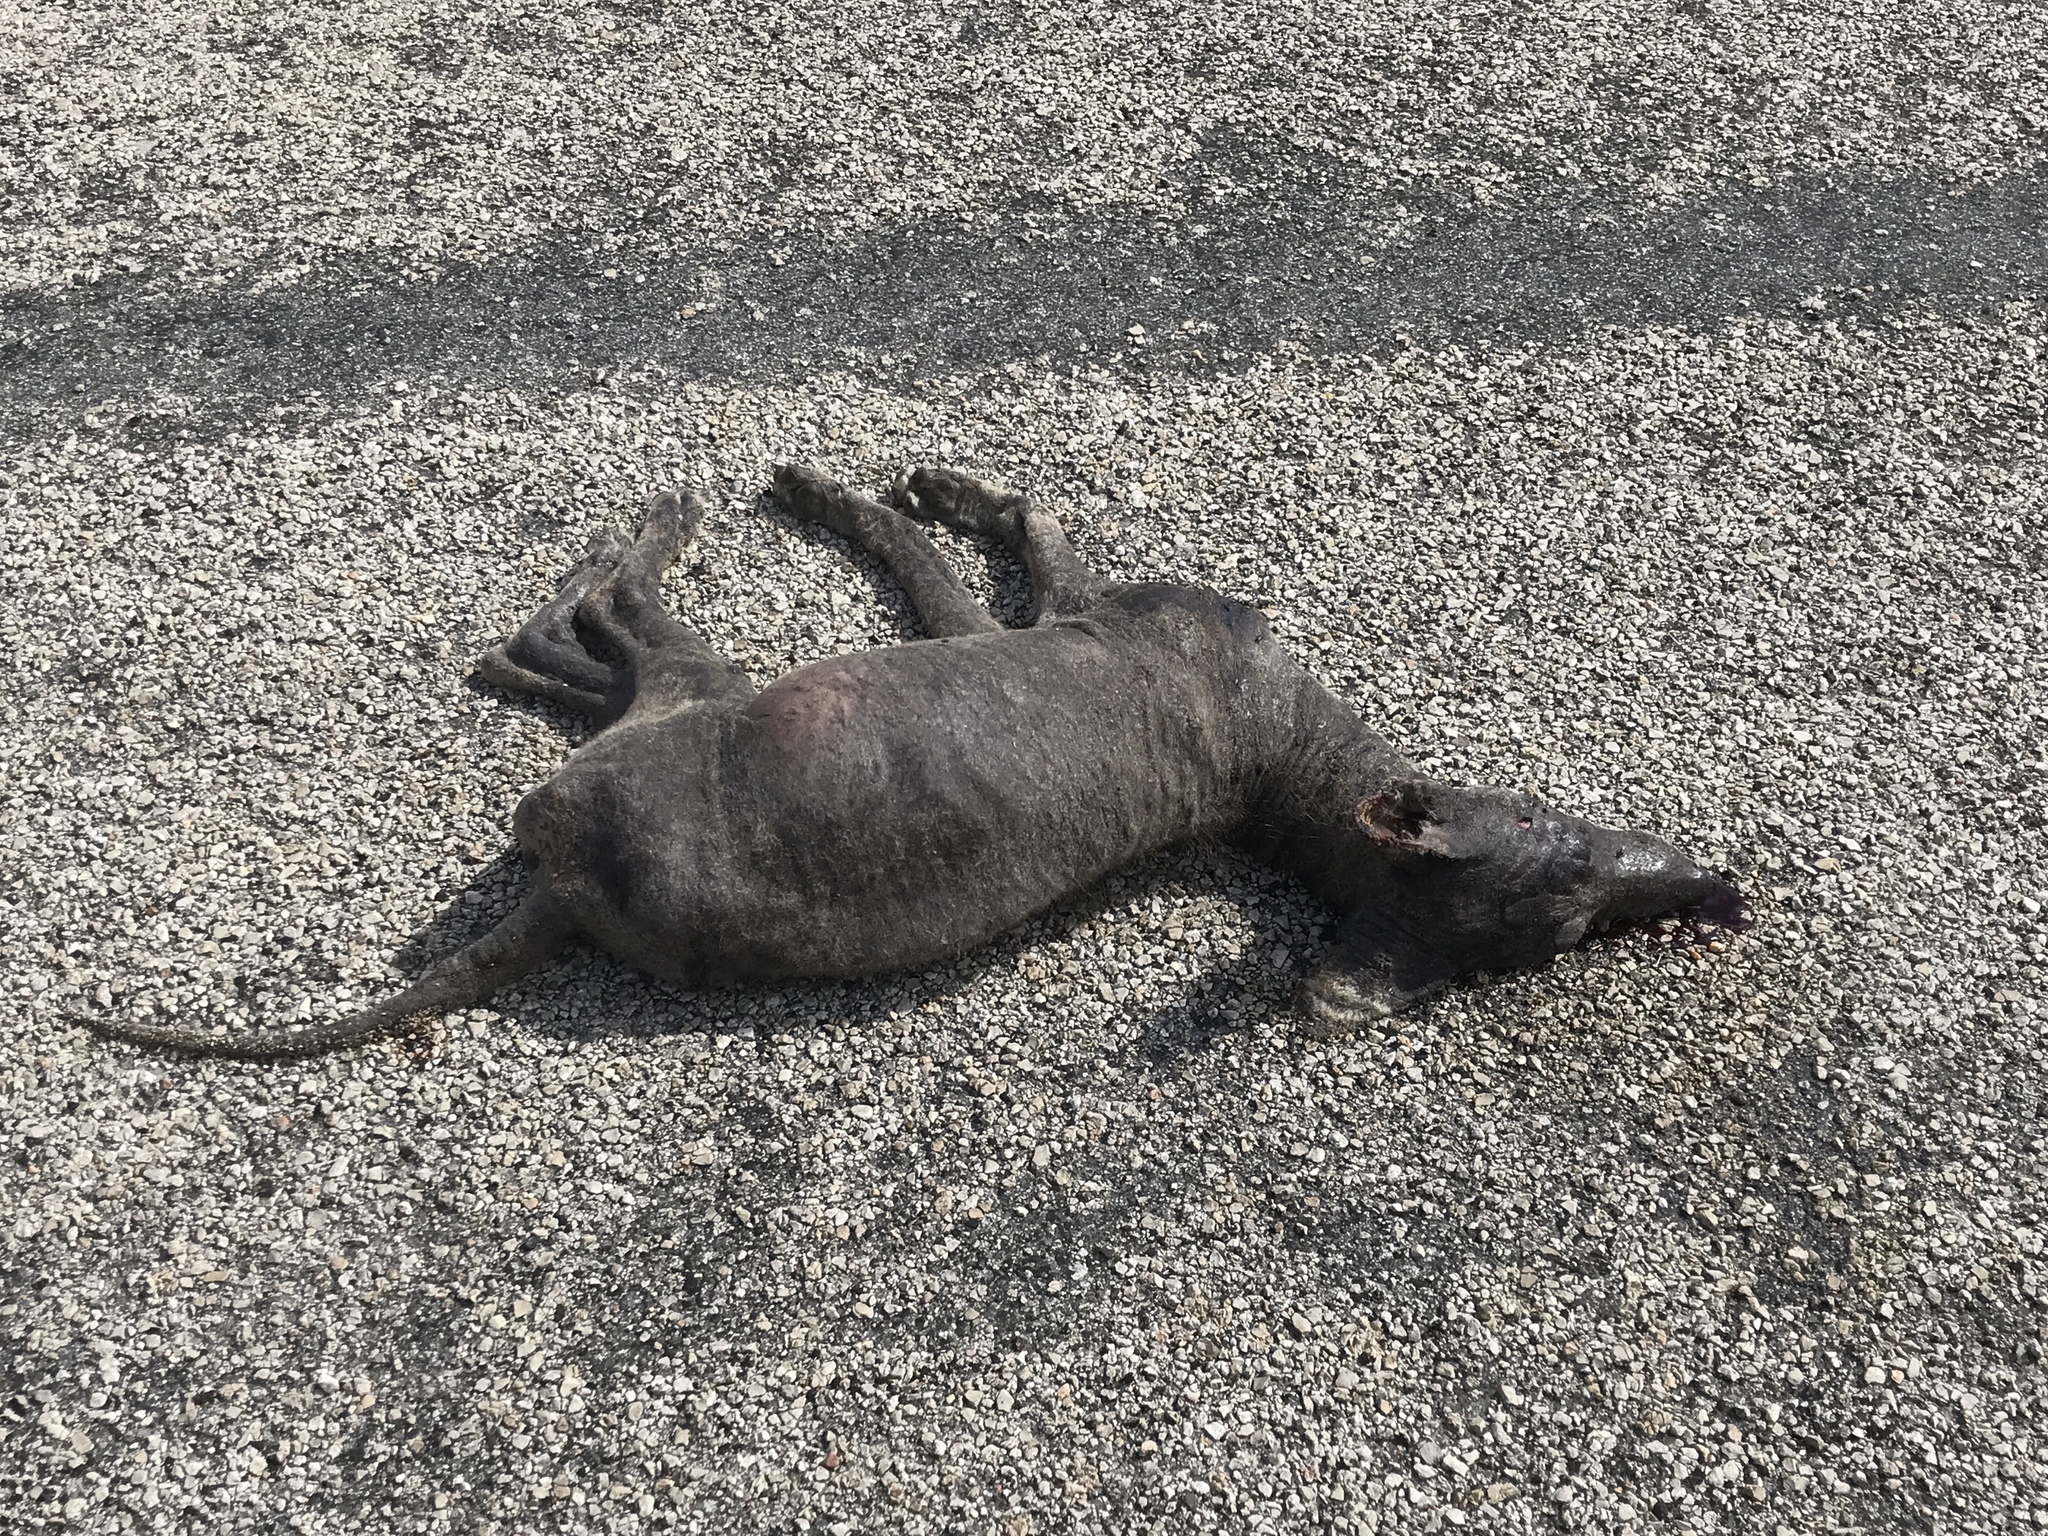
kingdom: Animalia
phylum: Chordata
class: Mammalia
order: Carnivora
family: Canidae
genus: Canis
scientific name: Canis latrans
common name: Coyote
